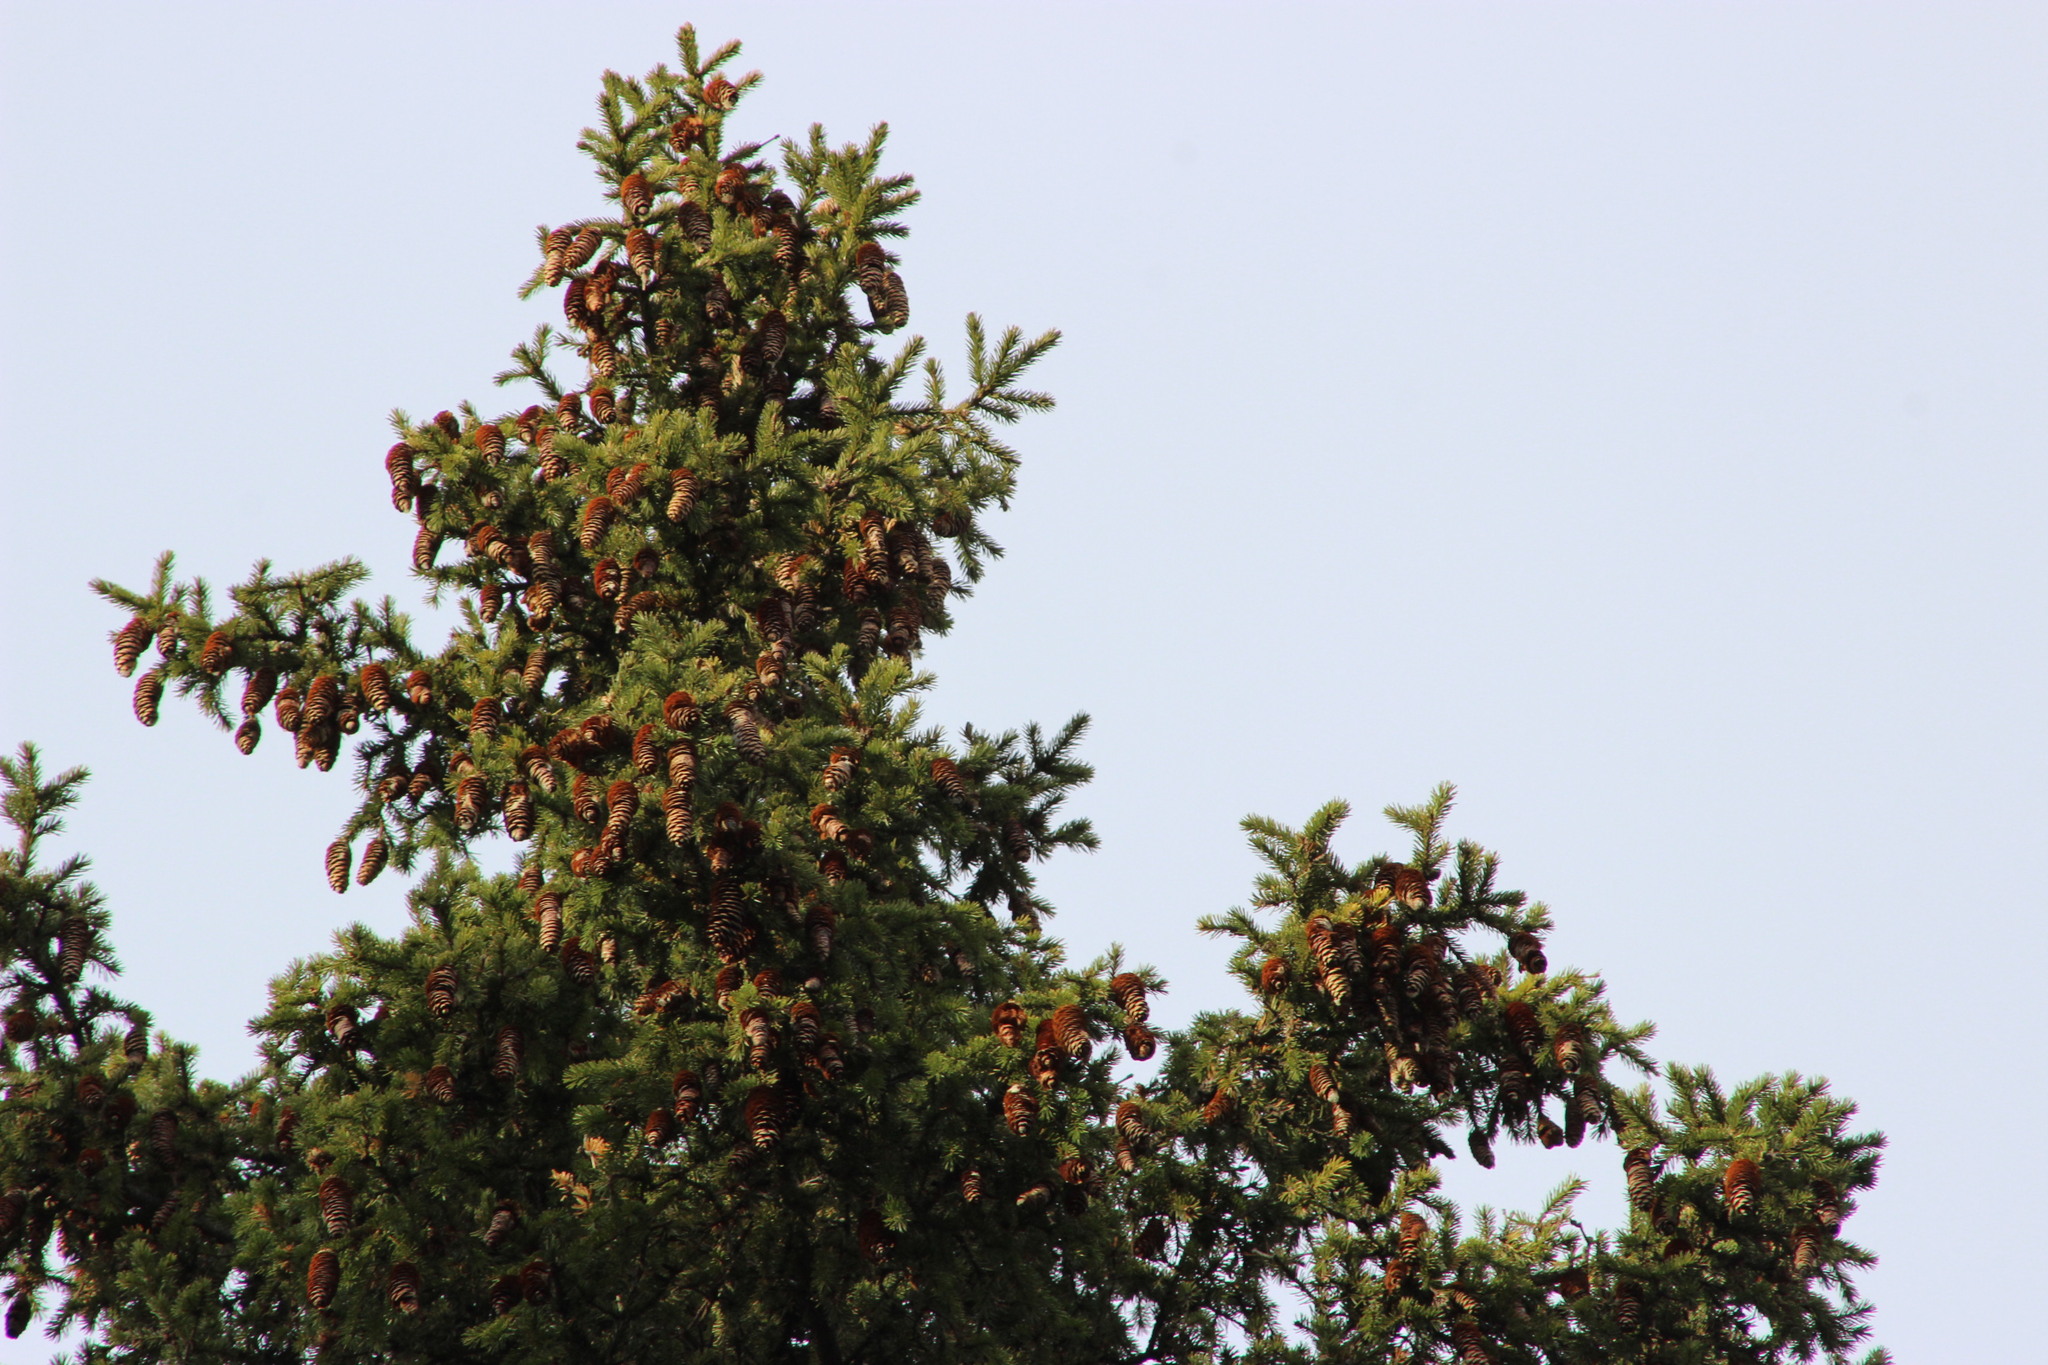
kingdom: Plantae
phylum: Tracheophyta
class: Pinopsida
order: Pinales
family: Pinaceae
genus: Picea
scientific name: Picea obovata
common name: Siberian spruce
